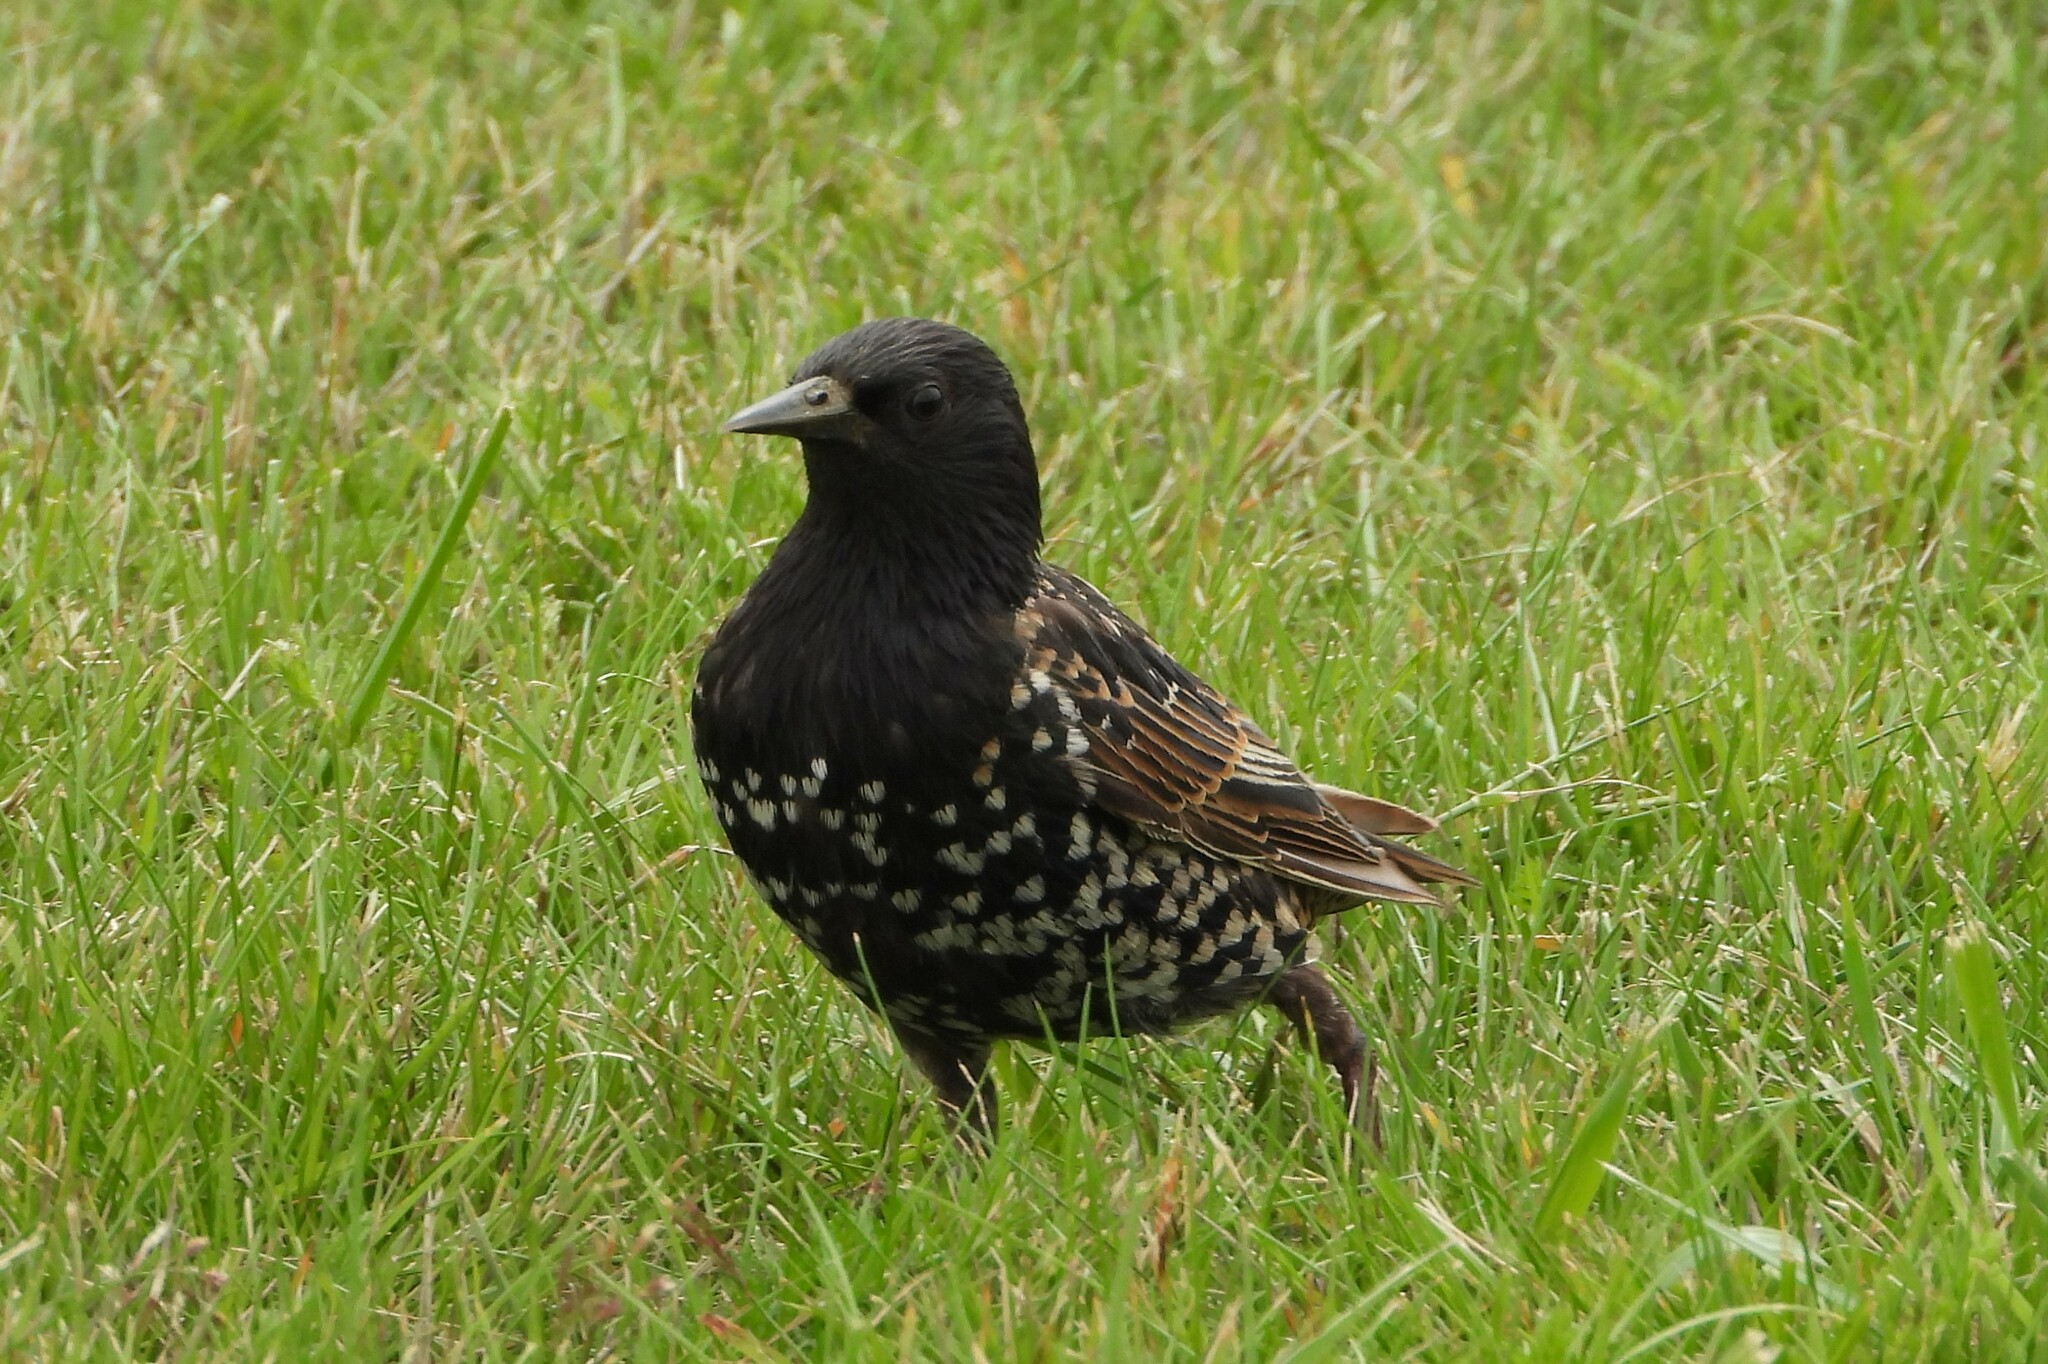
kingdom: Animalia
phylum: Chordata
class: Aves
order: Passeriformes
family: Sturnidae
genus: Sturnus
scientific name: Sturnus vulgaris
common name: Common starling
